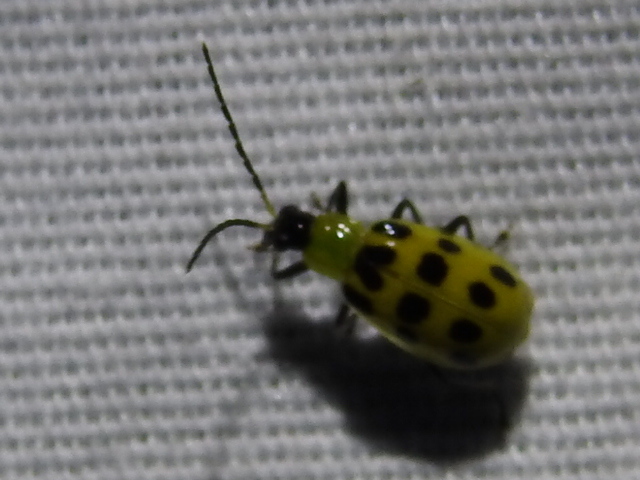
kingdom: Animalia
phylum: Arthropoda
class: Insecta
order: Coleoptera
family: Chrysomelidae
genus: Diabrotica
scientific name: Diabrotica undecimpunctata
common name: Spotted cucumber beetle
